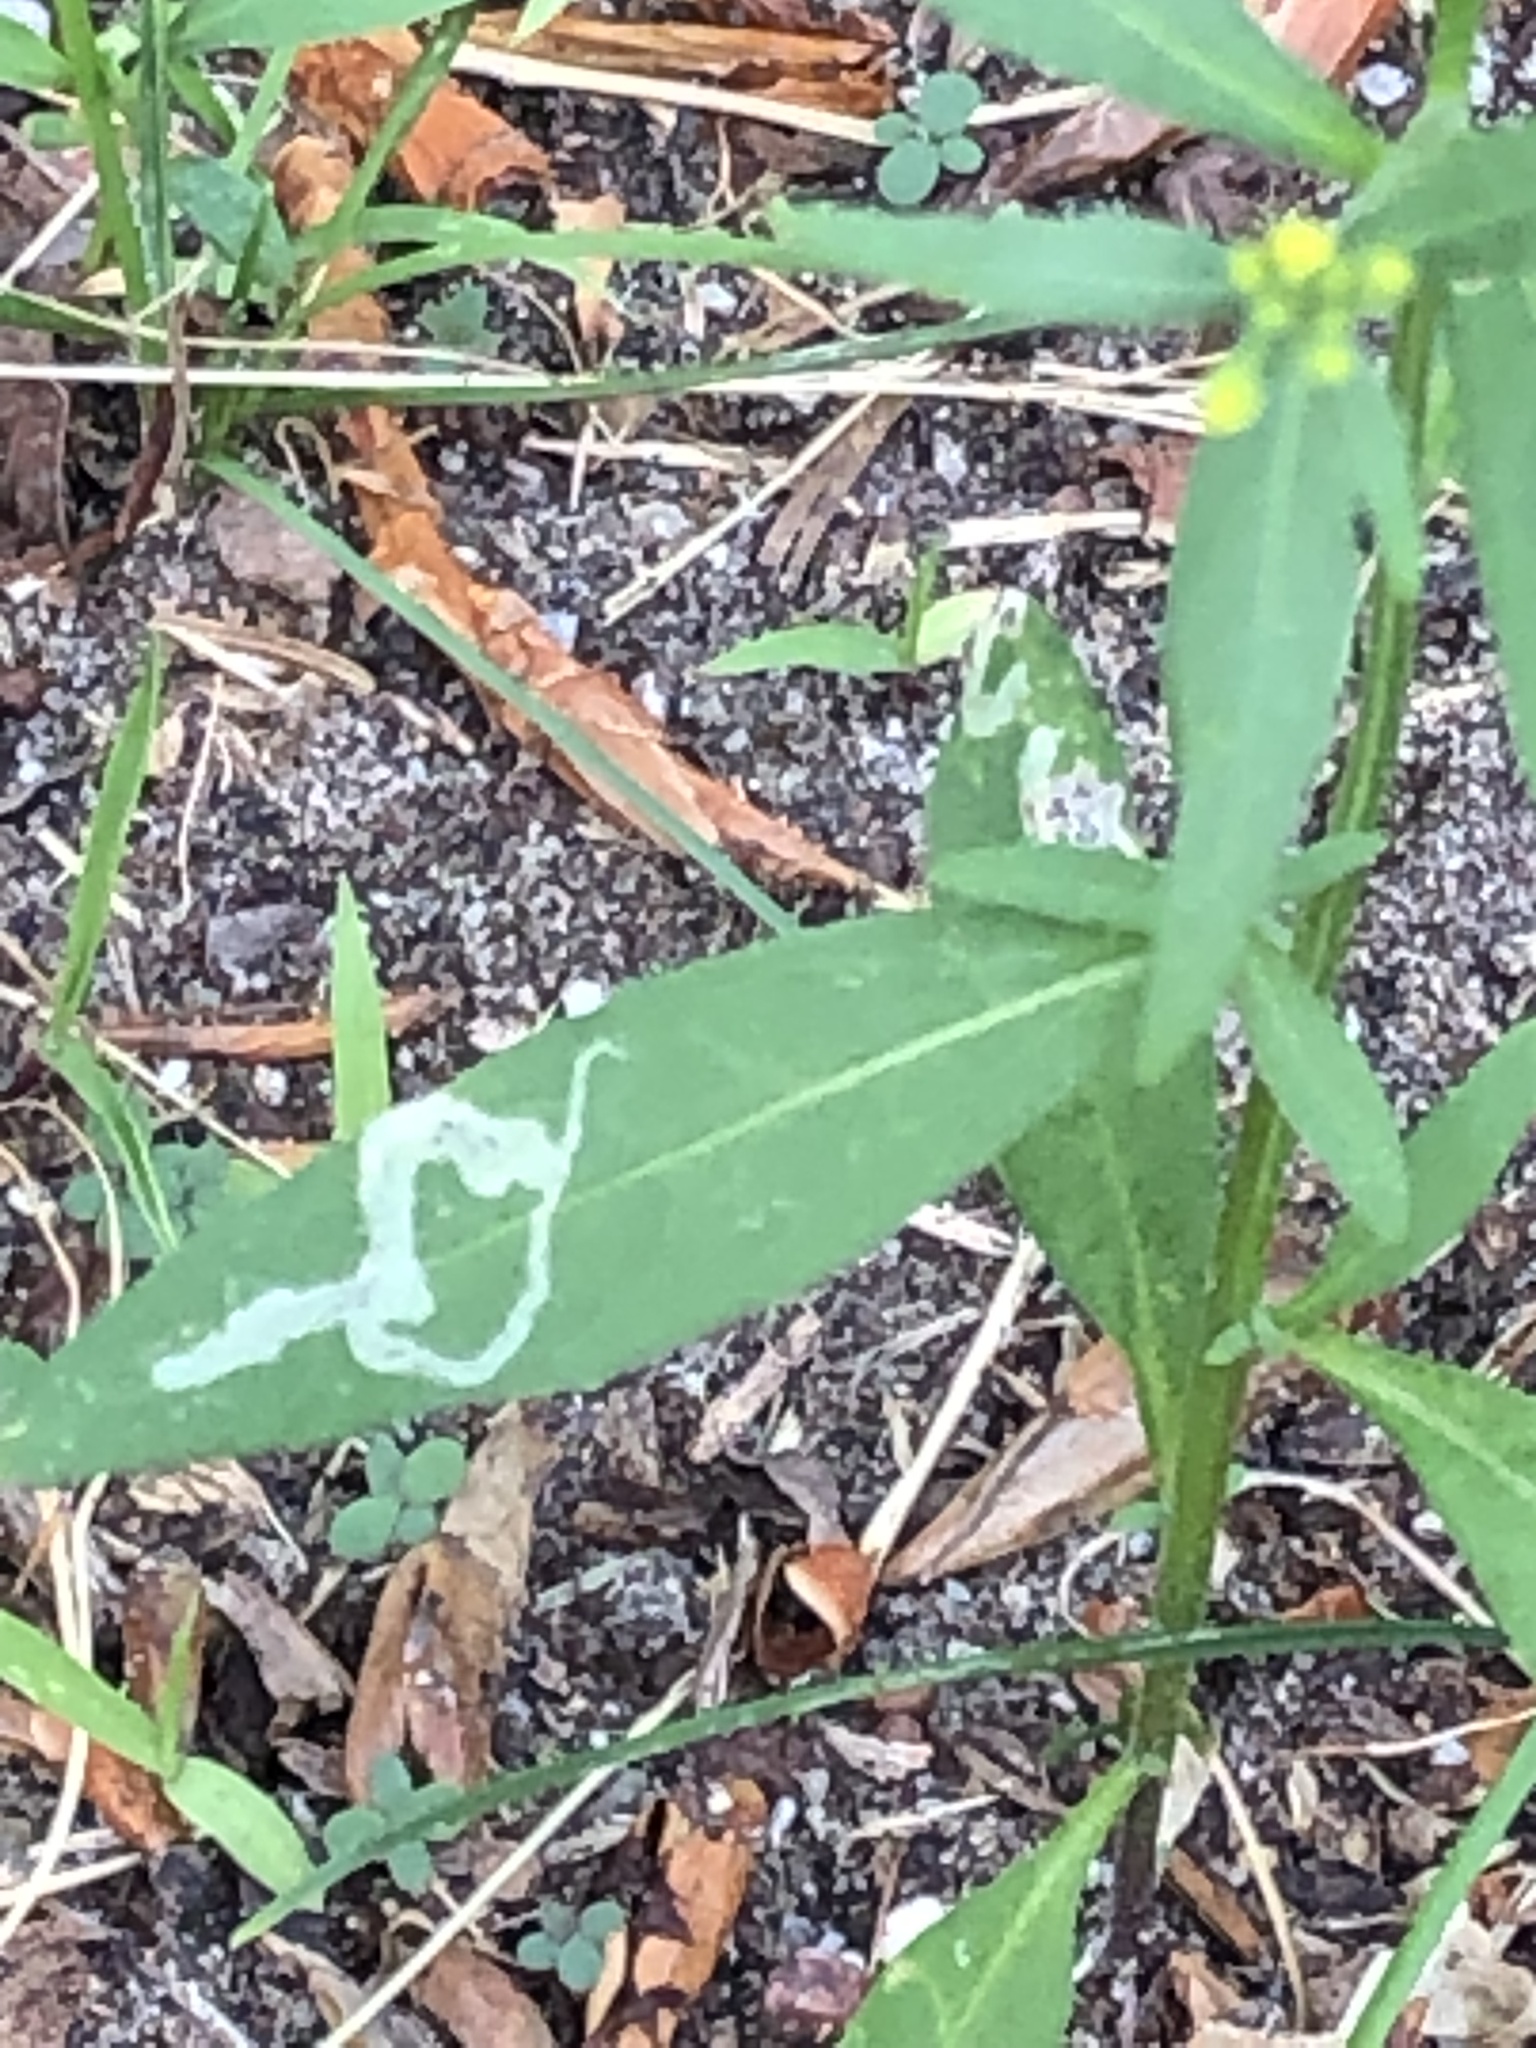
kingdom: Animalia
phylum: Arthropoda
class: Insecta
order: Diptera
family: Agromyzidae
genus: Liriomyza
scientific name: Liriomyza brassicae
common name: Serpentine leaf miner
